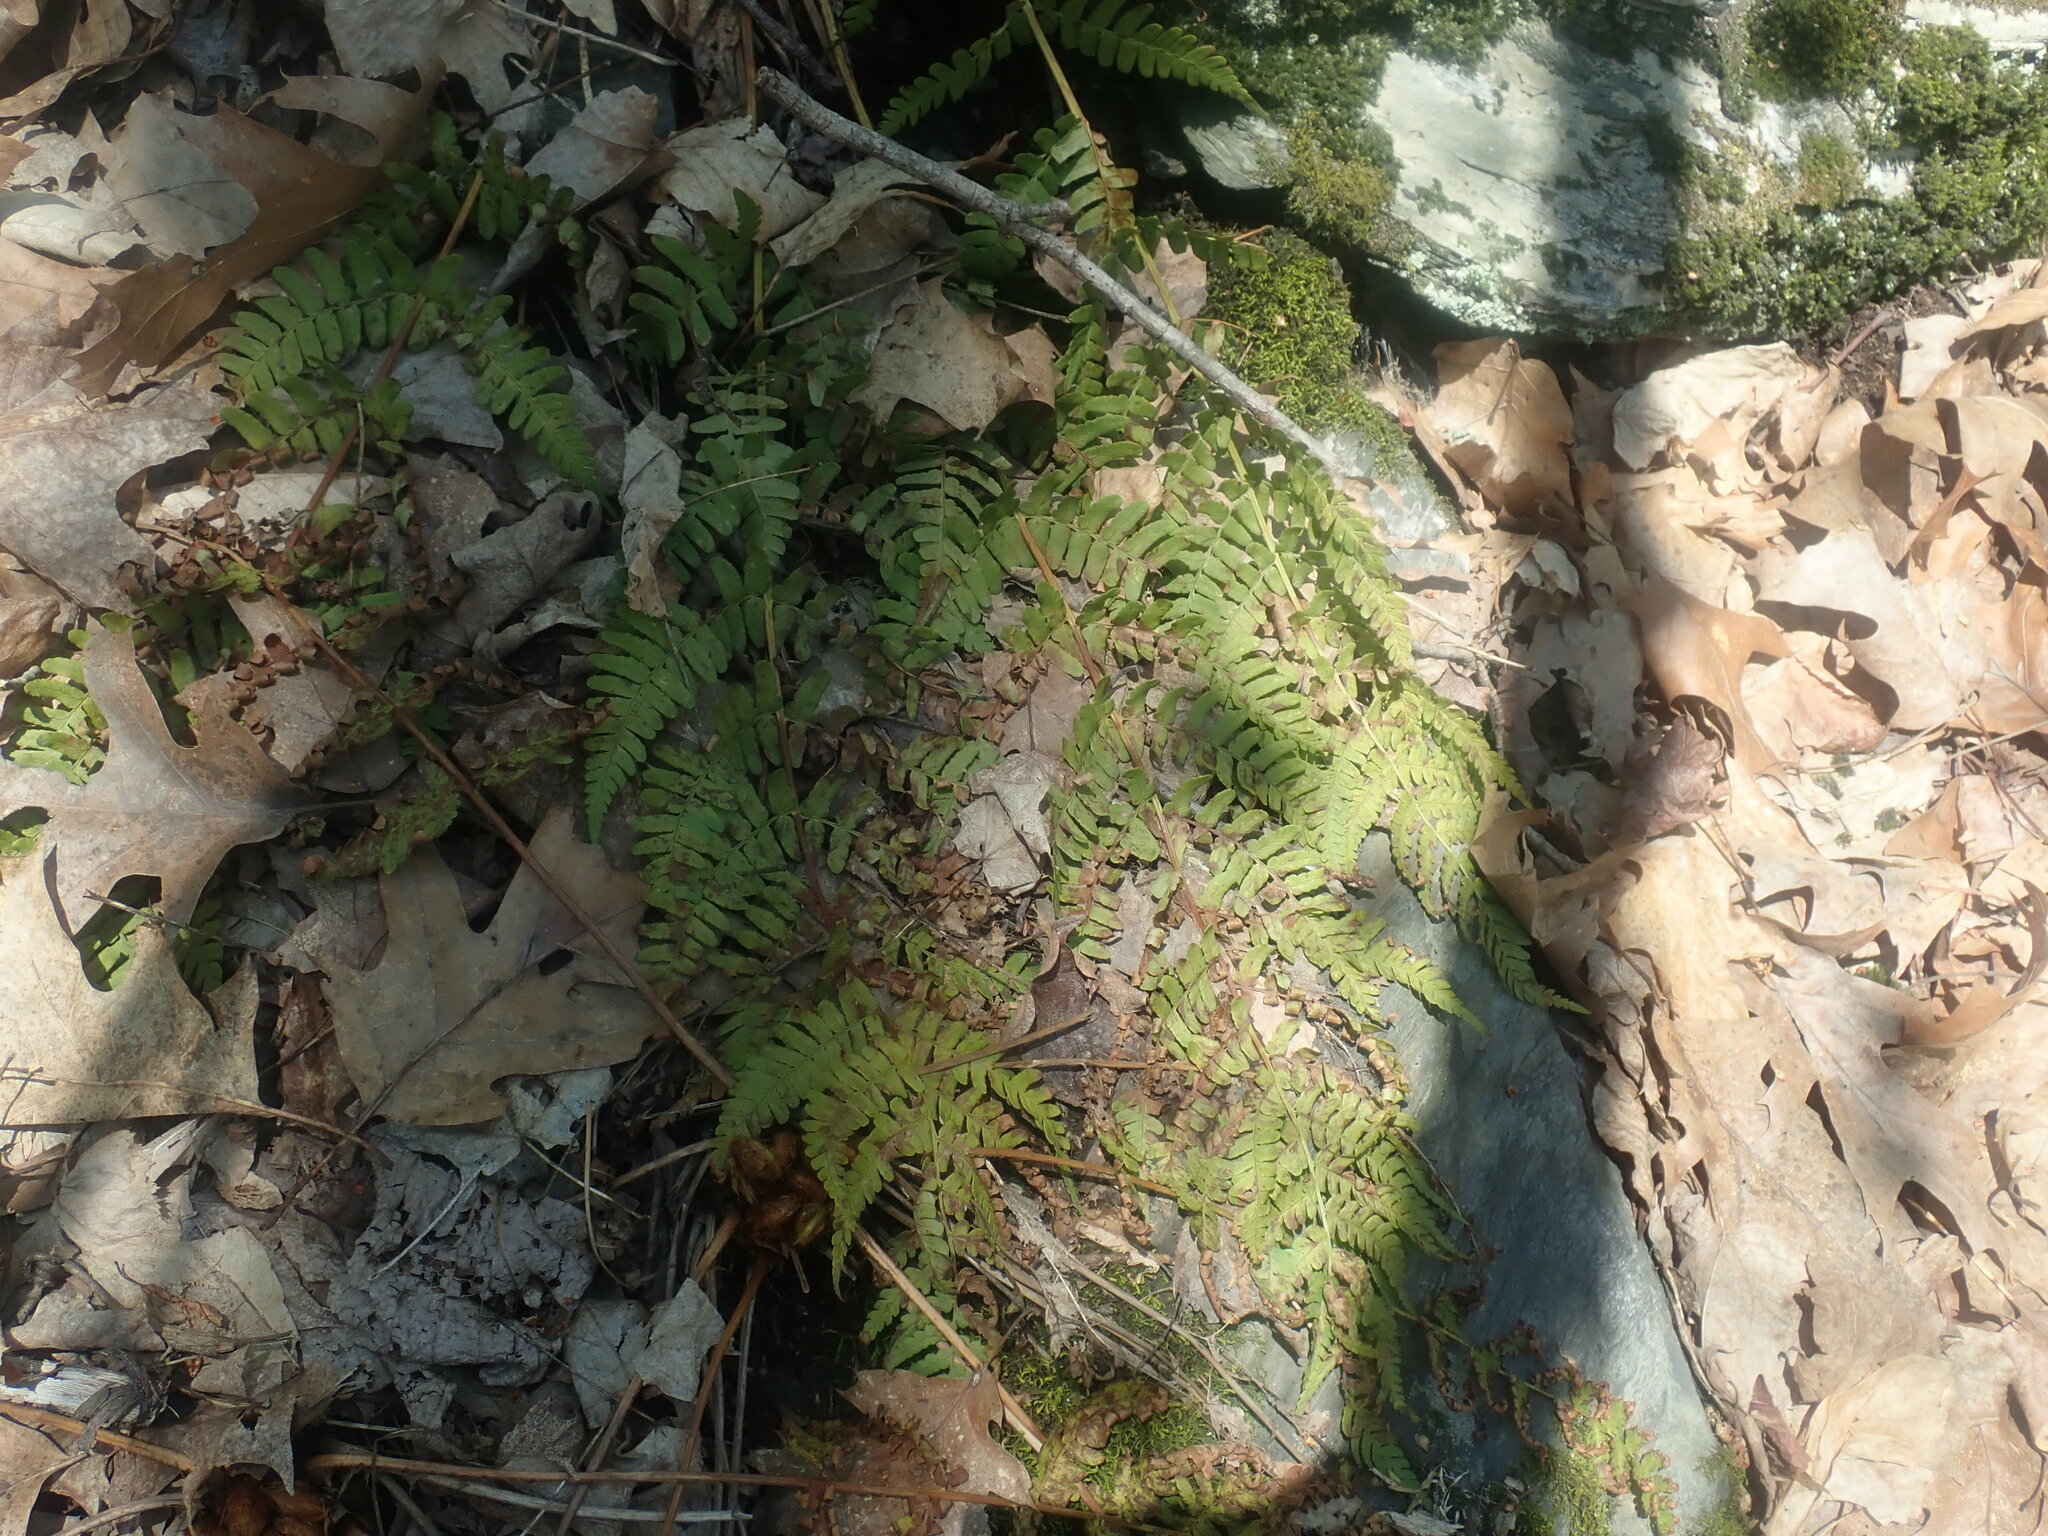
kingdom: Plantae
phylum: Tracheophyta
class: Polypodiopsida
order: Polypodiales
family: Dryopteridaceae
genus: Dryopteris
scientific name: Dryopteris marginalis
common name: Marginal wood fern
